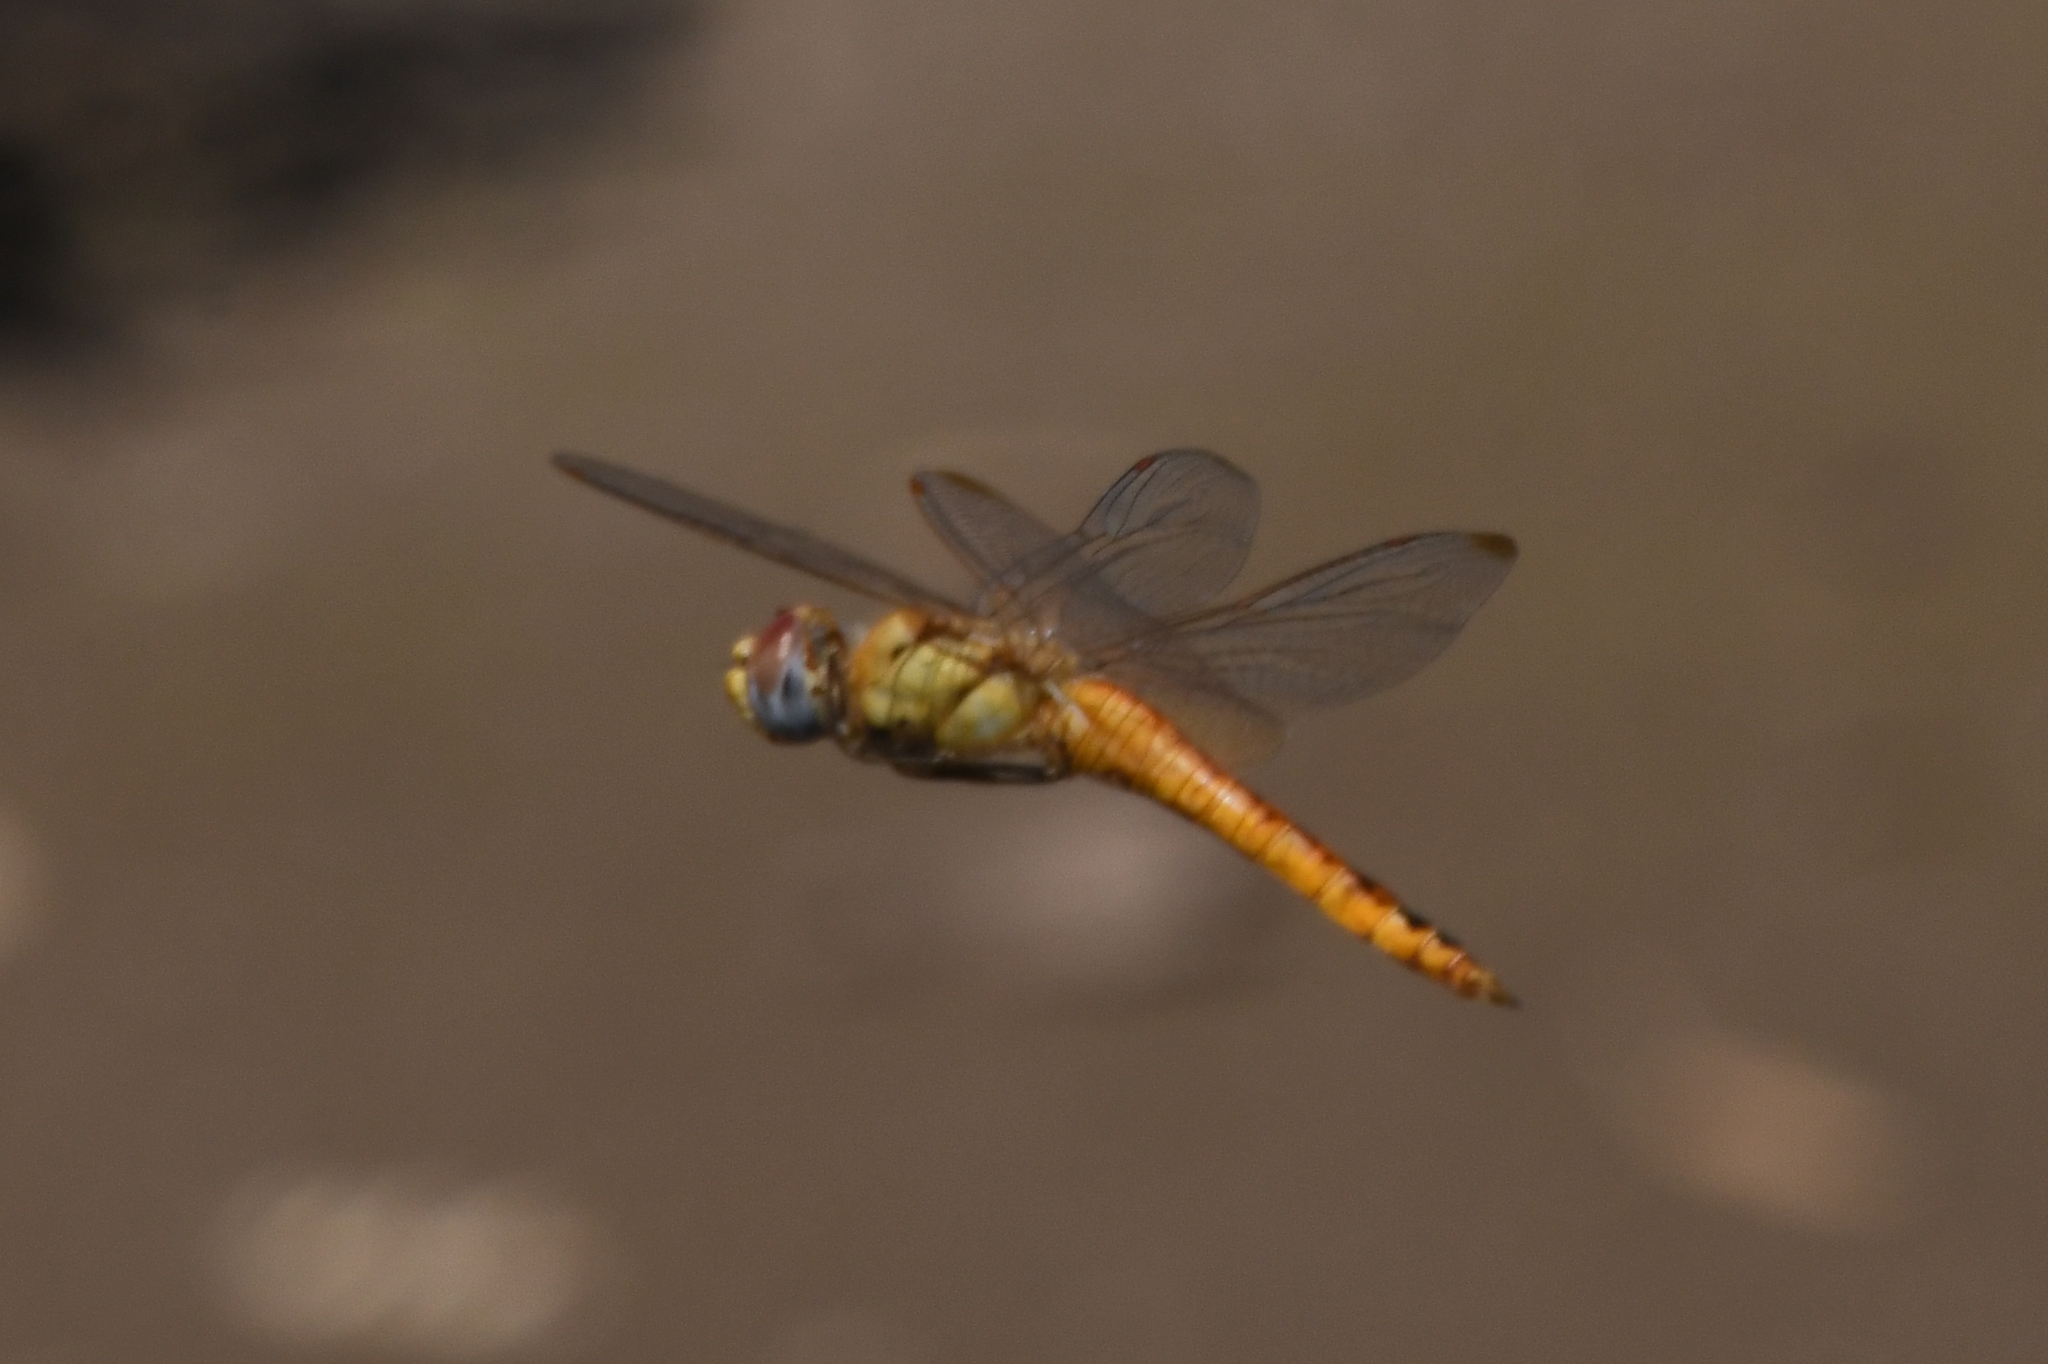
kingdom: Animalia
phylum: Arthropoda
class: Insecta
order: Odonata
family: Libellulidae
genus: Pantala
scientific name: Pantala flavescens
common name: Wandering glider
